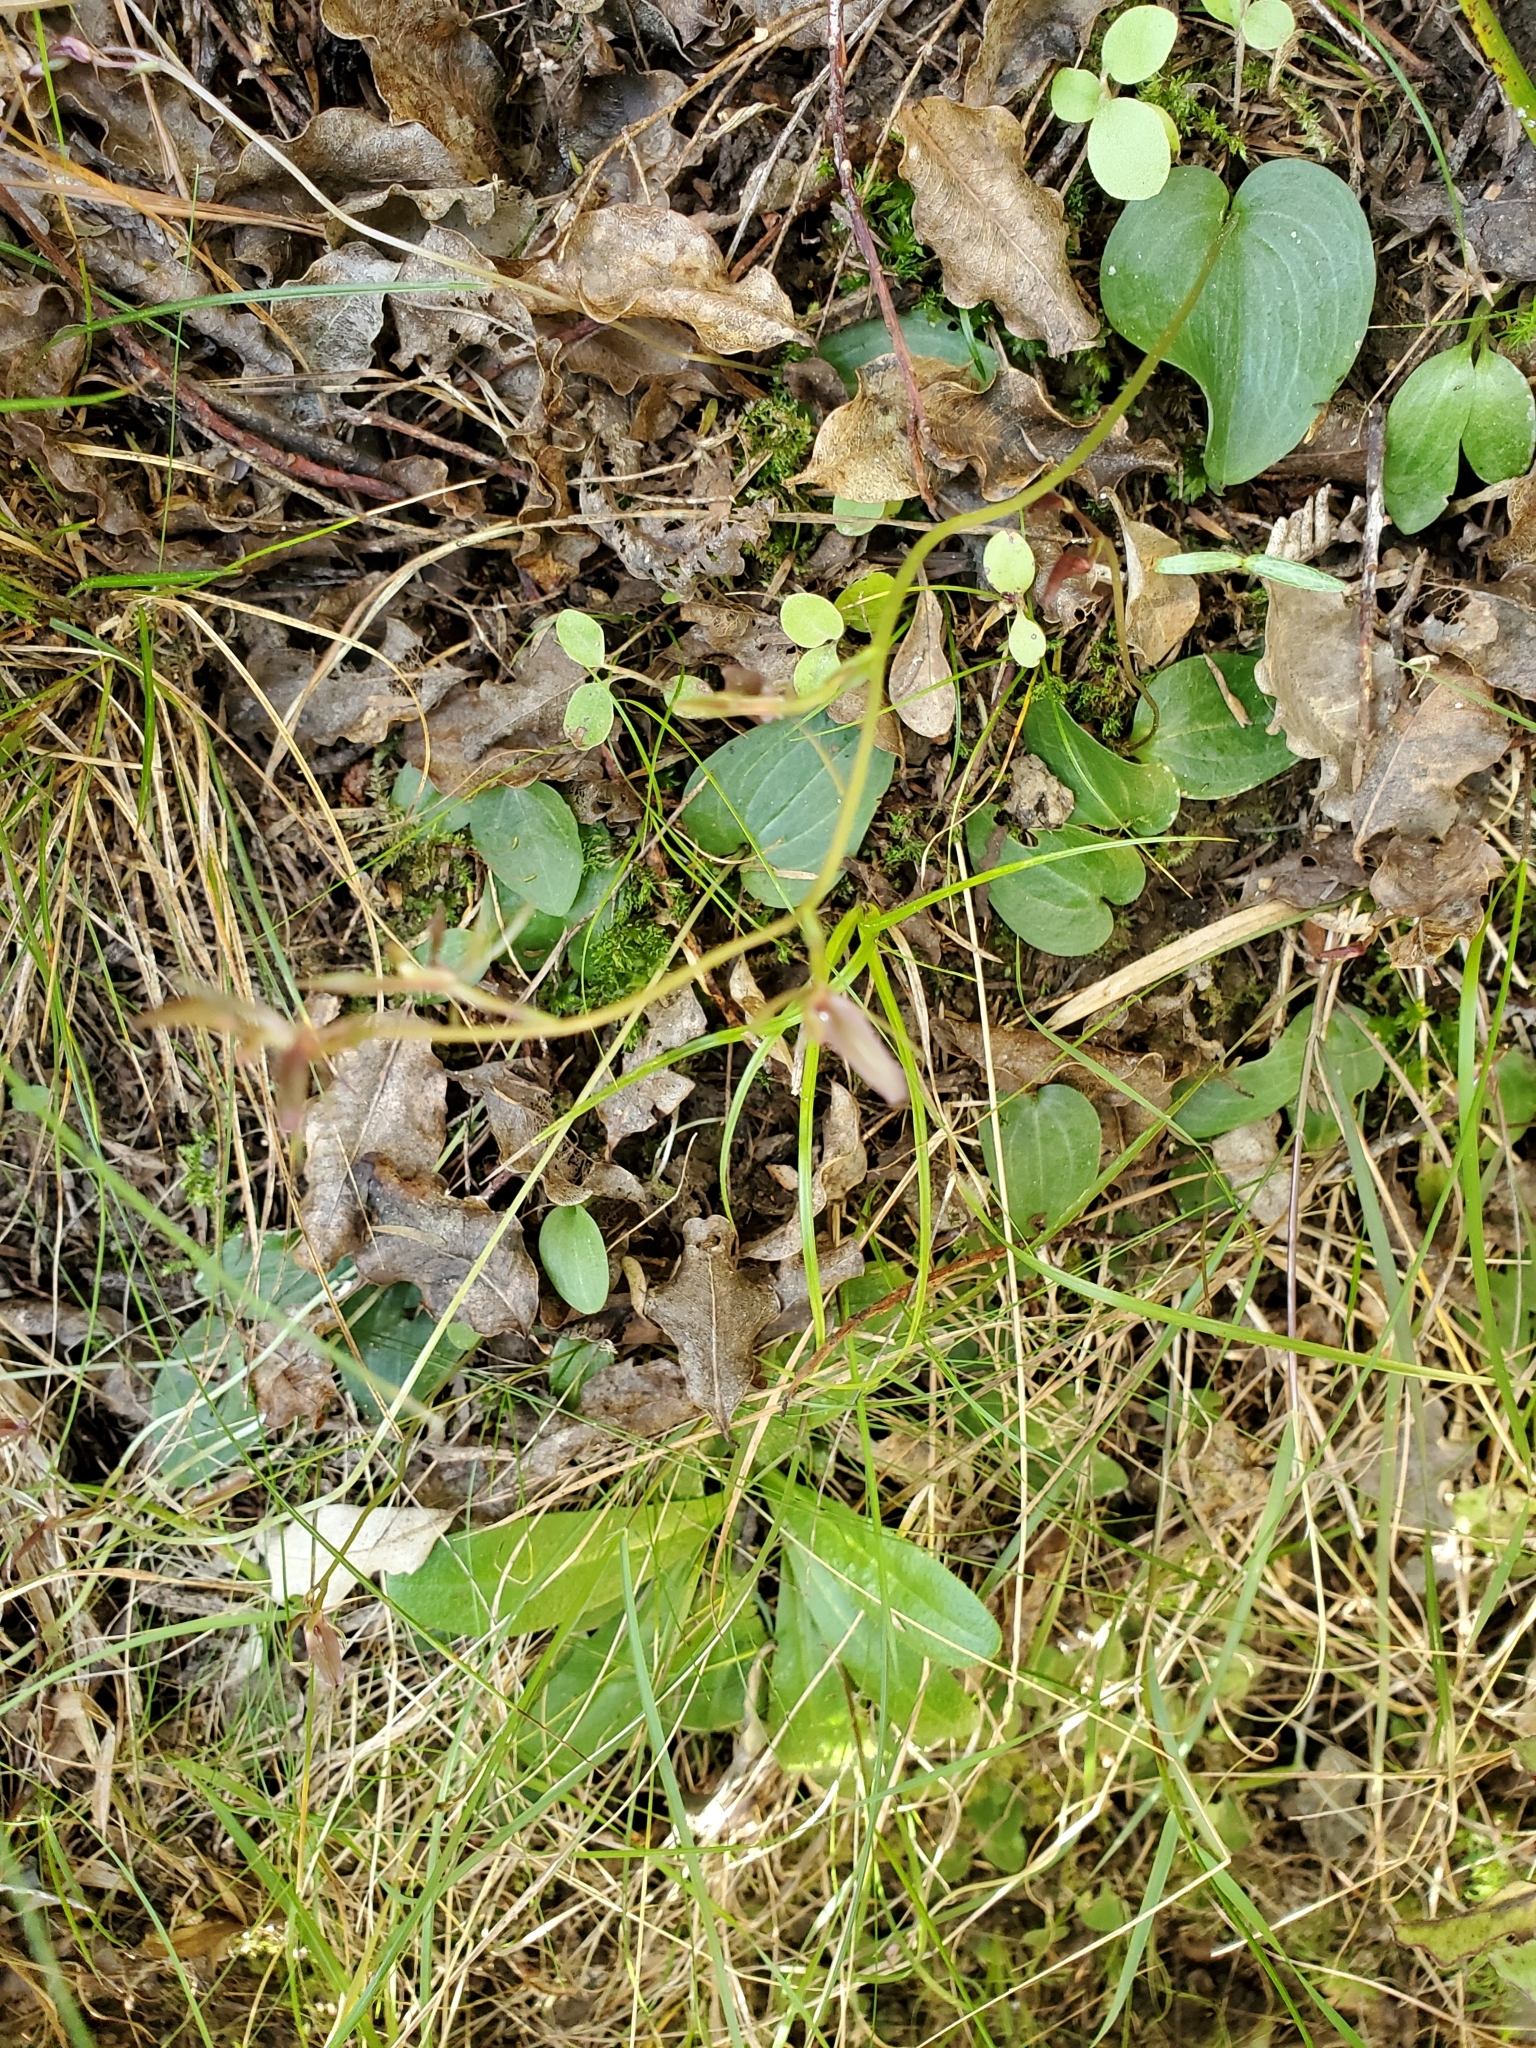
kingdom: Plantae
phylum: Tracheophyta
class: Liliopsida
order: Asparagales
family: Orchidaceae
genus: Cyrtostylis
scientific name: Cyrtostylis rotundifolia
